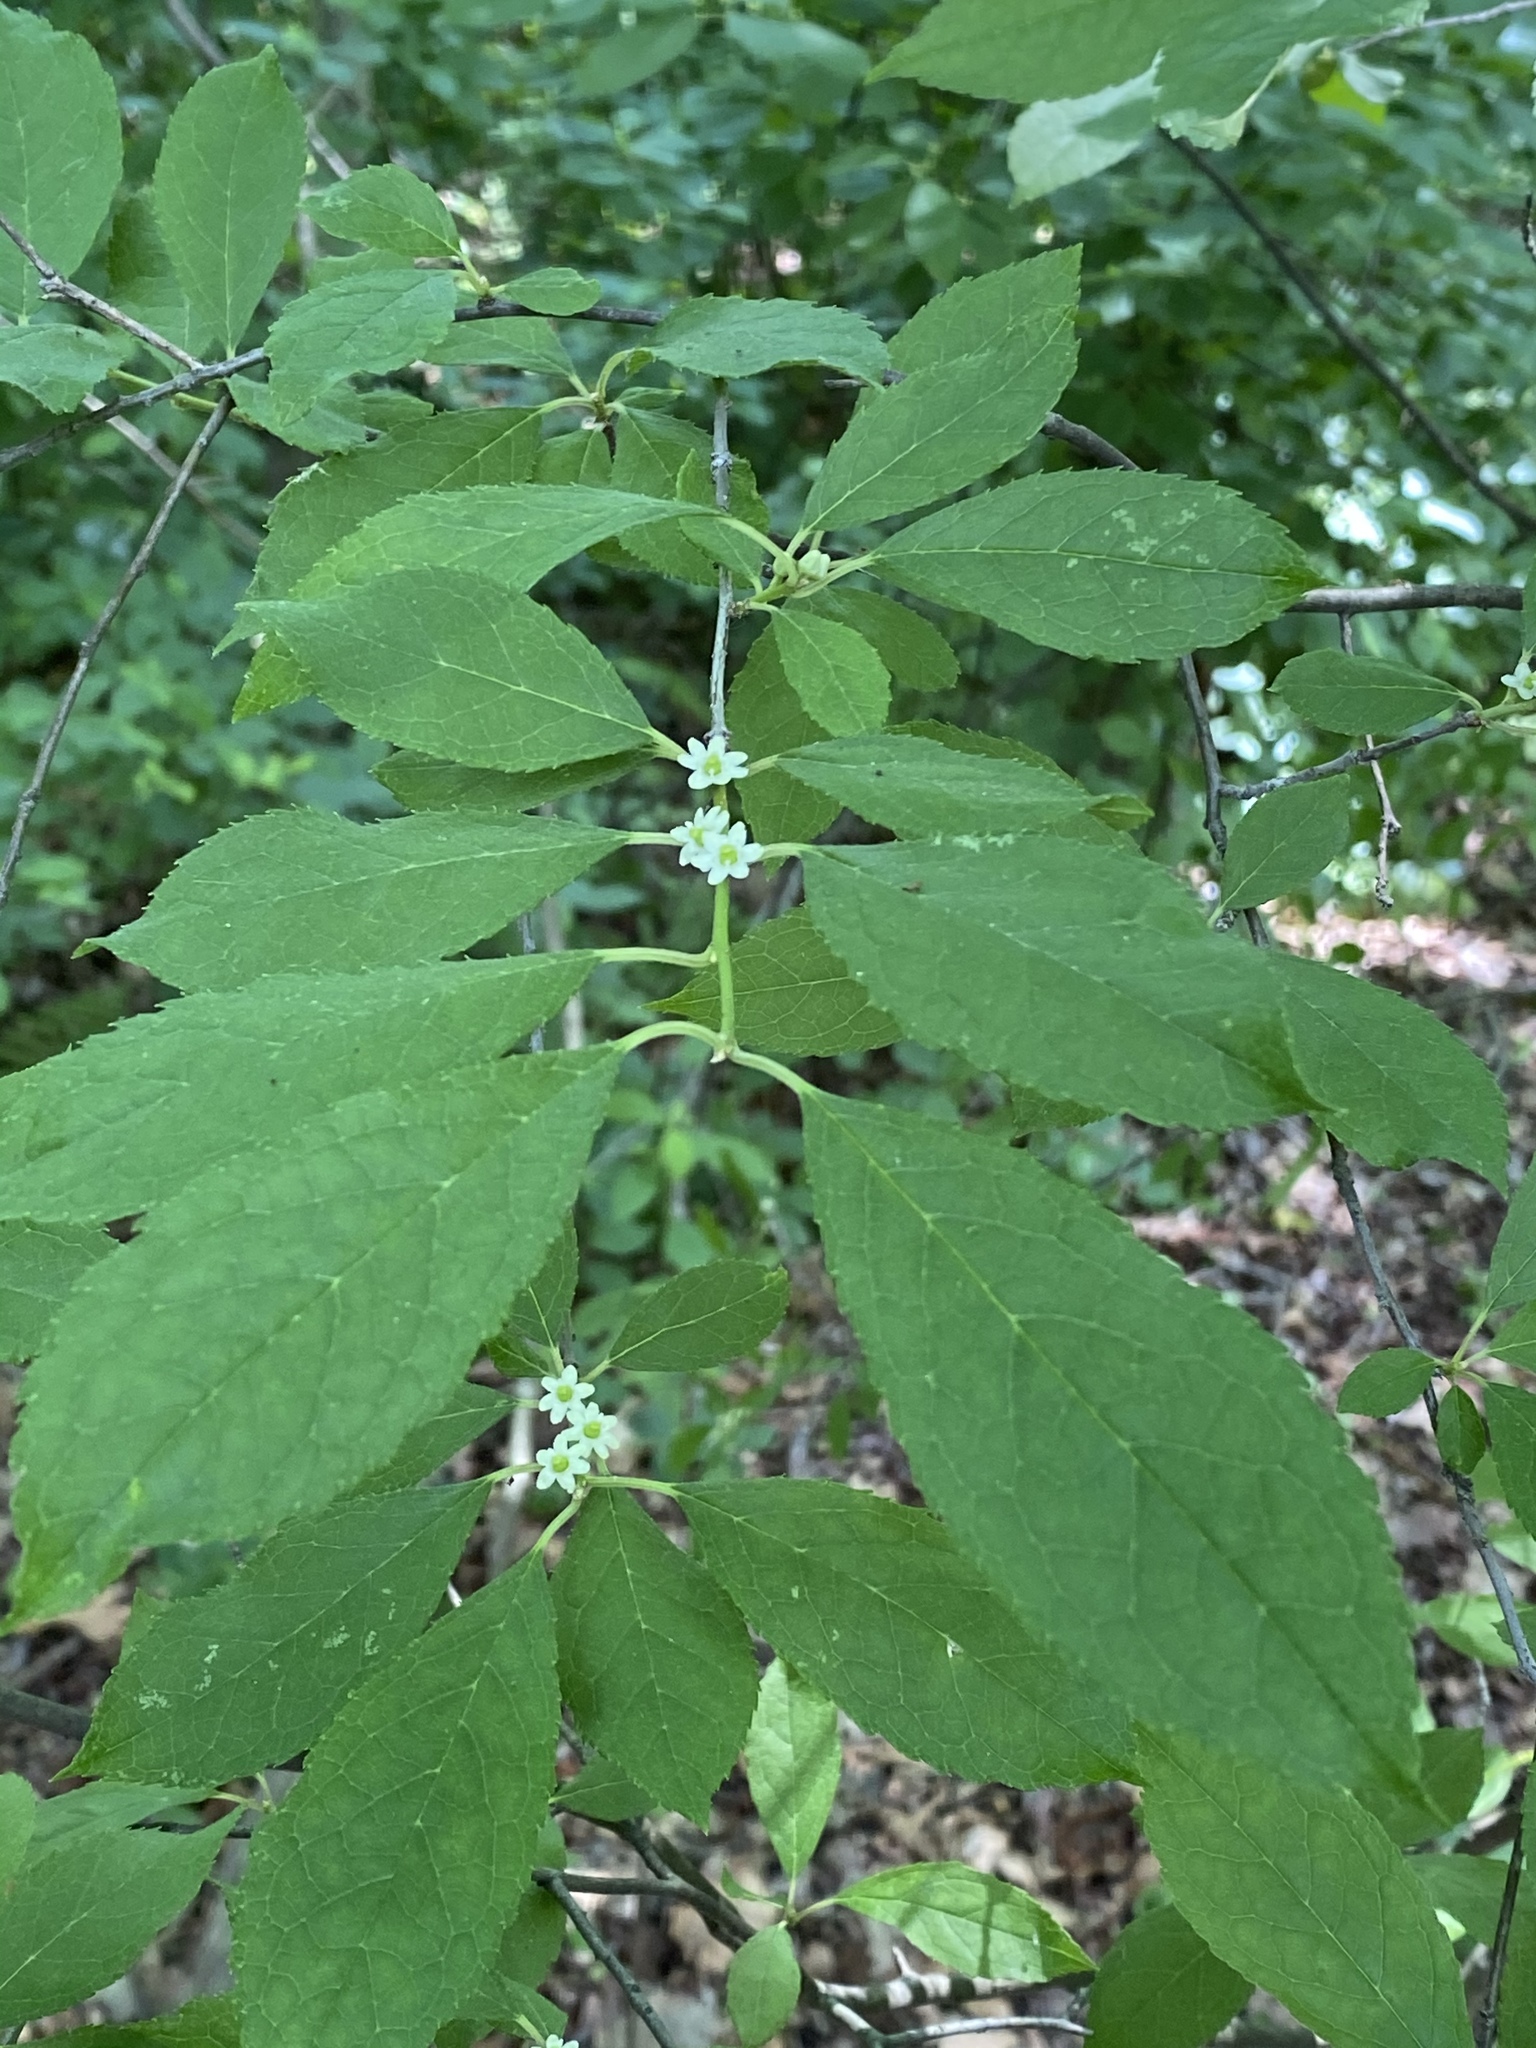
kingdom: Plantae
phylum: Tracheophyta
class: Magnoliopsida
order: Aquifoliales
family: Aquifoliaceae
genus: Ilex
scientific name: Ilex verticillata
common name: Virginia winterberry
